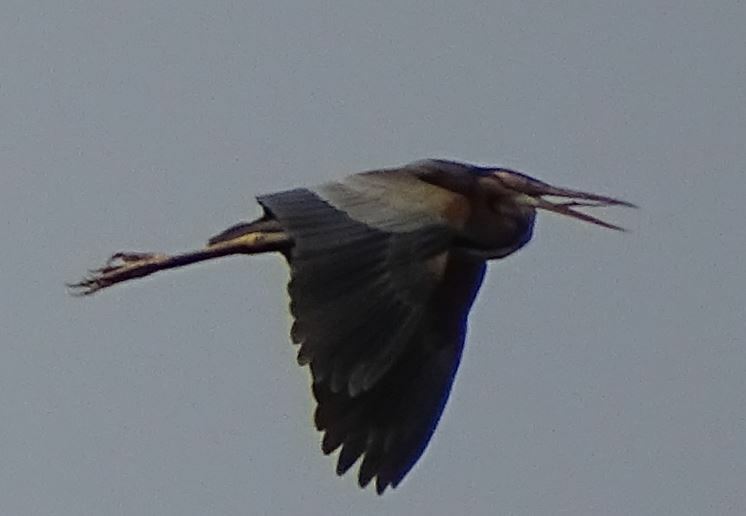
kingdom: Animalia
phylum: Chordata
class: Aves
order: Pelecaniformes
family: Ardeidae
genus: Ardea
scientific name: Ardea purpurea
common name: Purple heron
